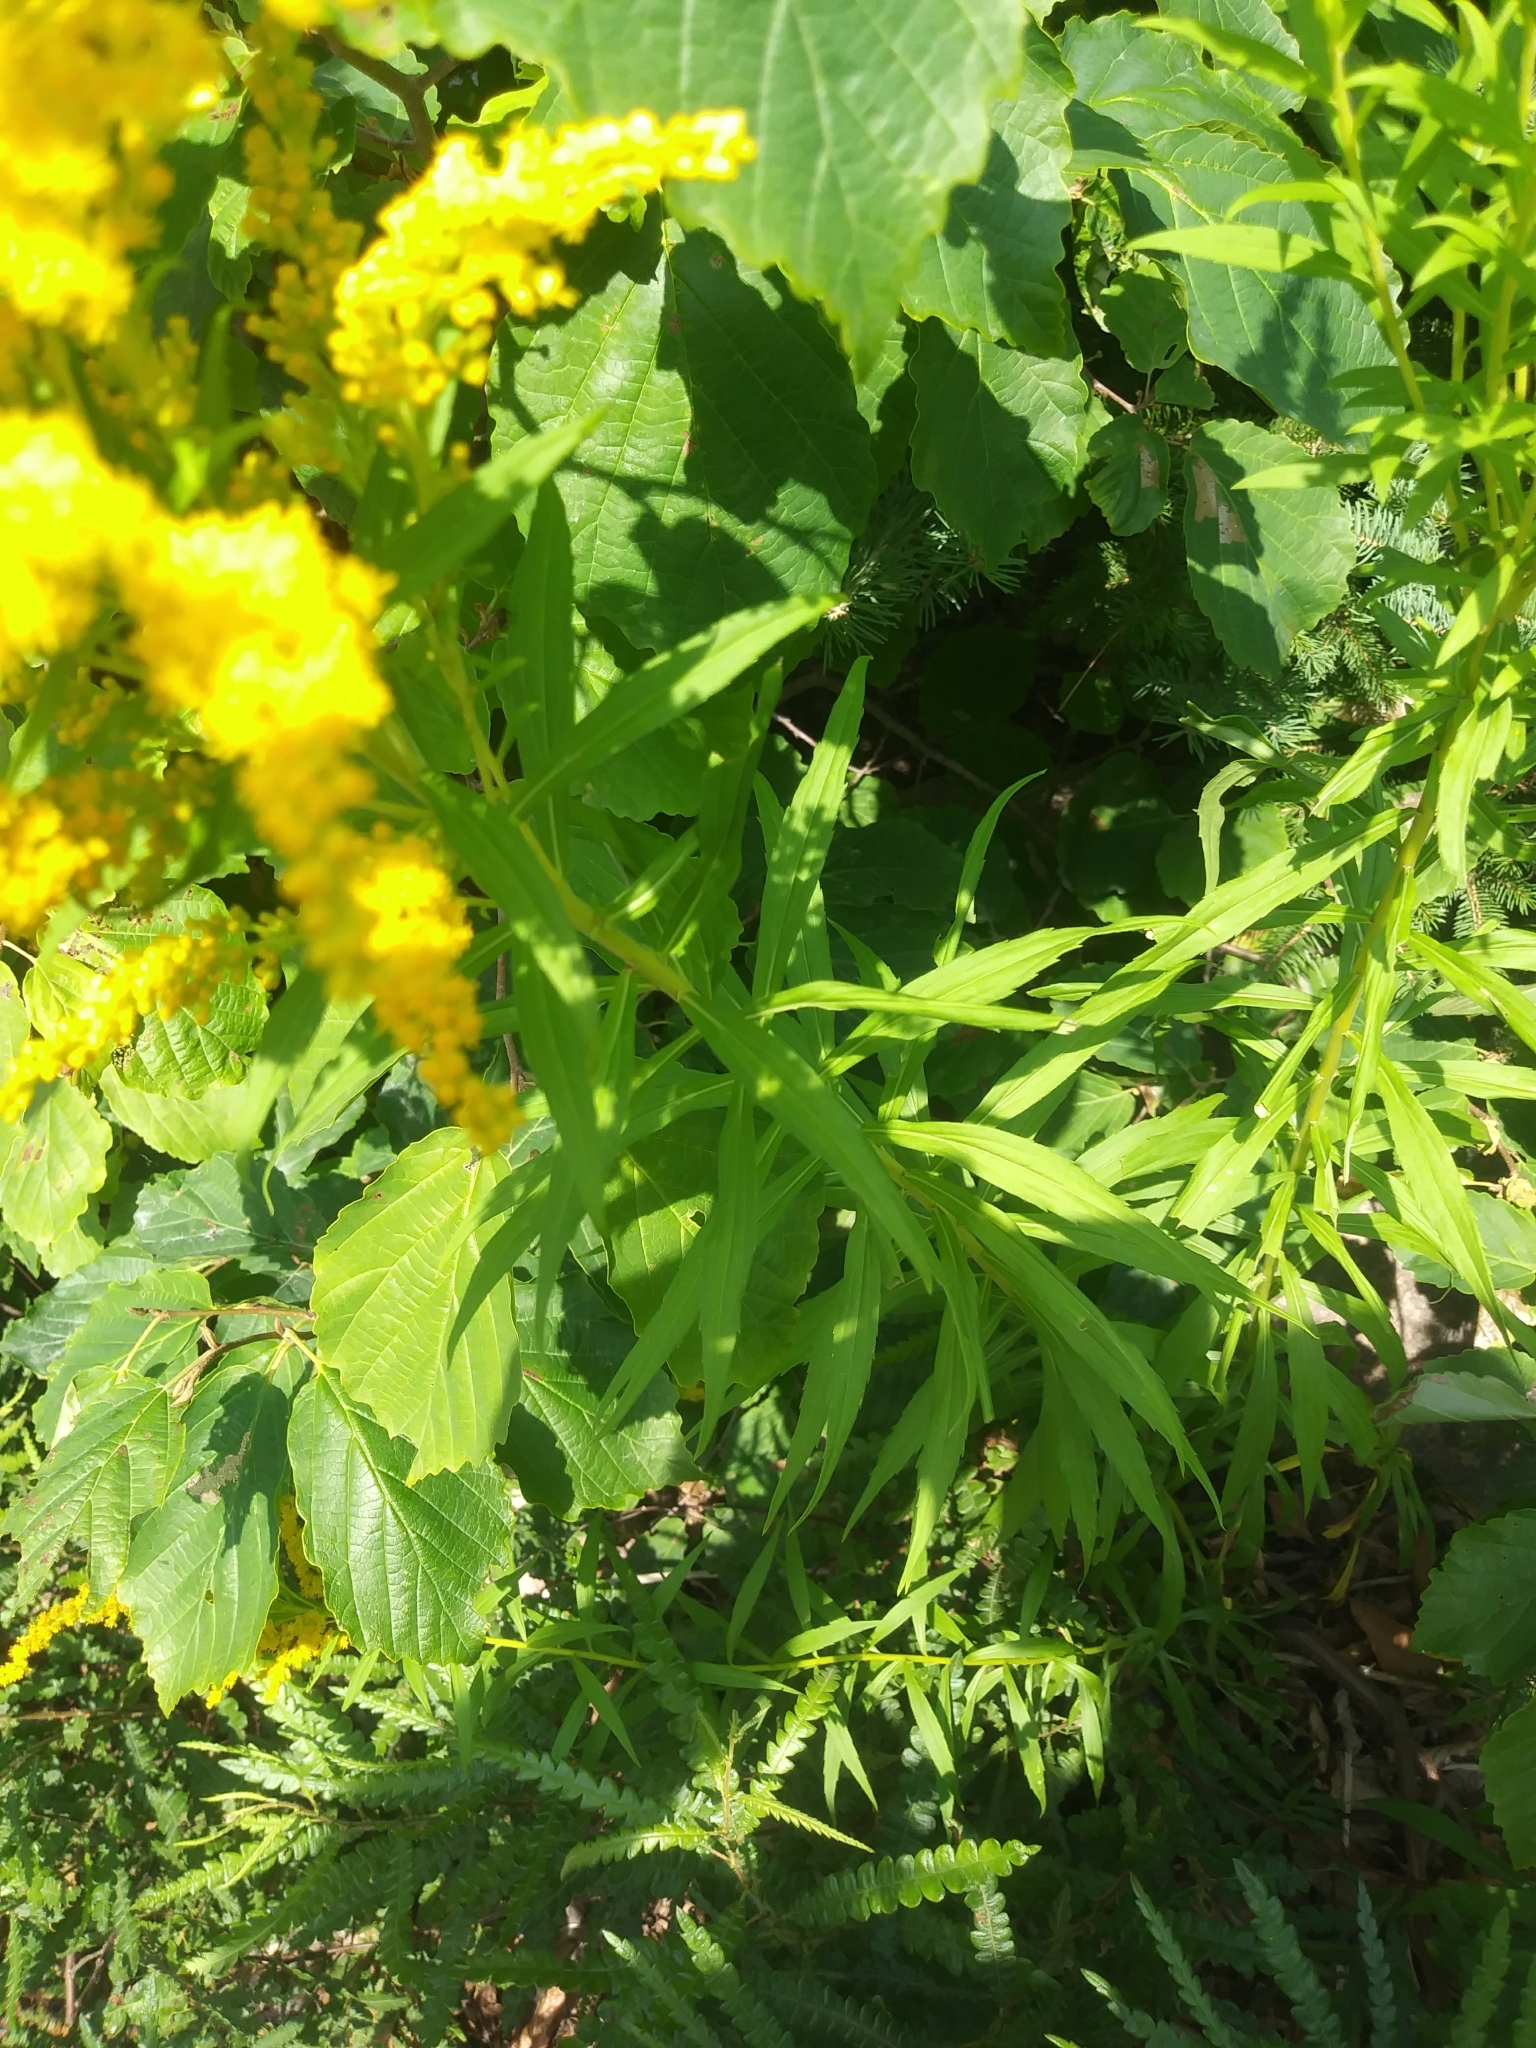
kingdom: Plantae
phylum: Tracheophyta
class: Magnoliopsida
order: Asterales
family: Asteraceae
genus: Solidago
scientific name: Solidago canadensis
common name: Canada goldenrod
